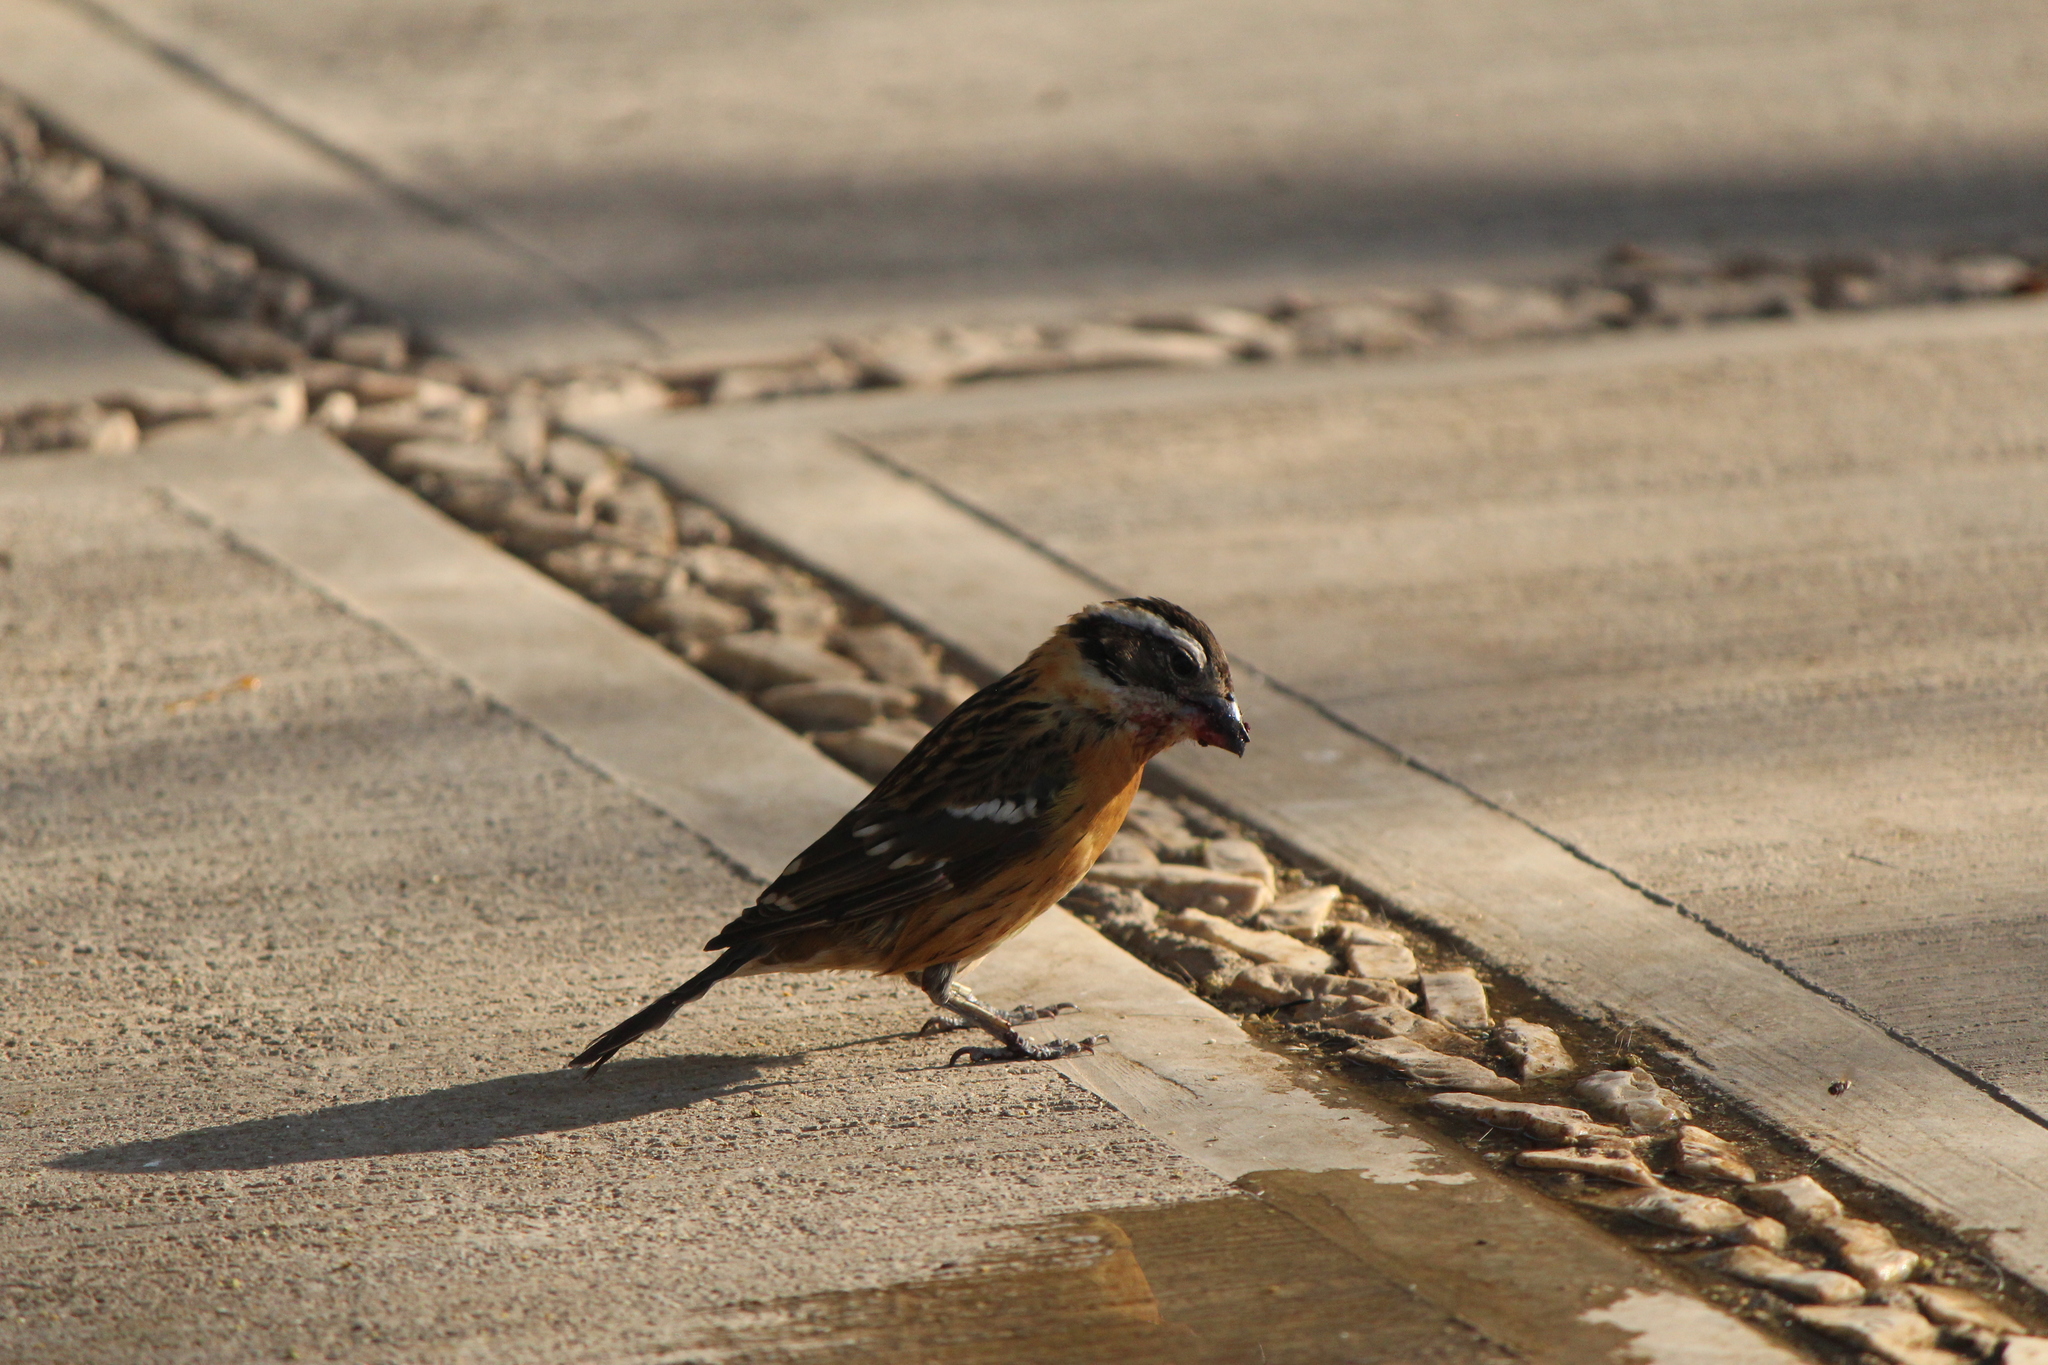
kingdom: Animalia
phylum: Chordata
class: Aves
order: Passeriformes
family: Cardinalidae
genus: Pheucticus
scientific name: Pheucticus melanocephalus
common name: Black-headed grosbeak
